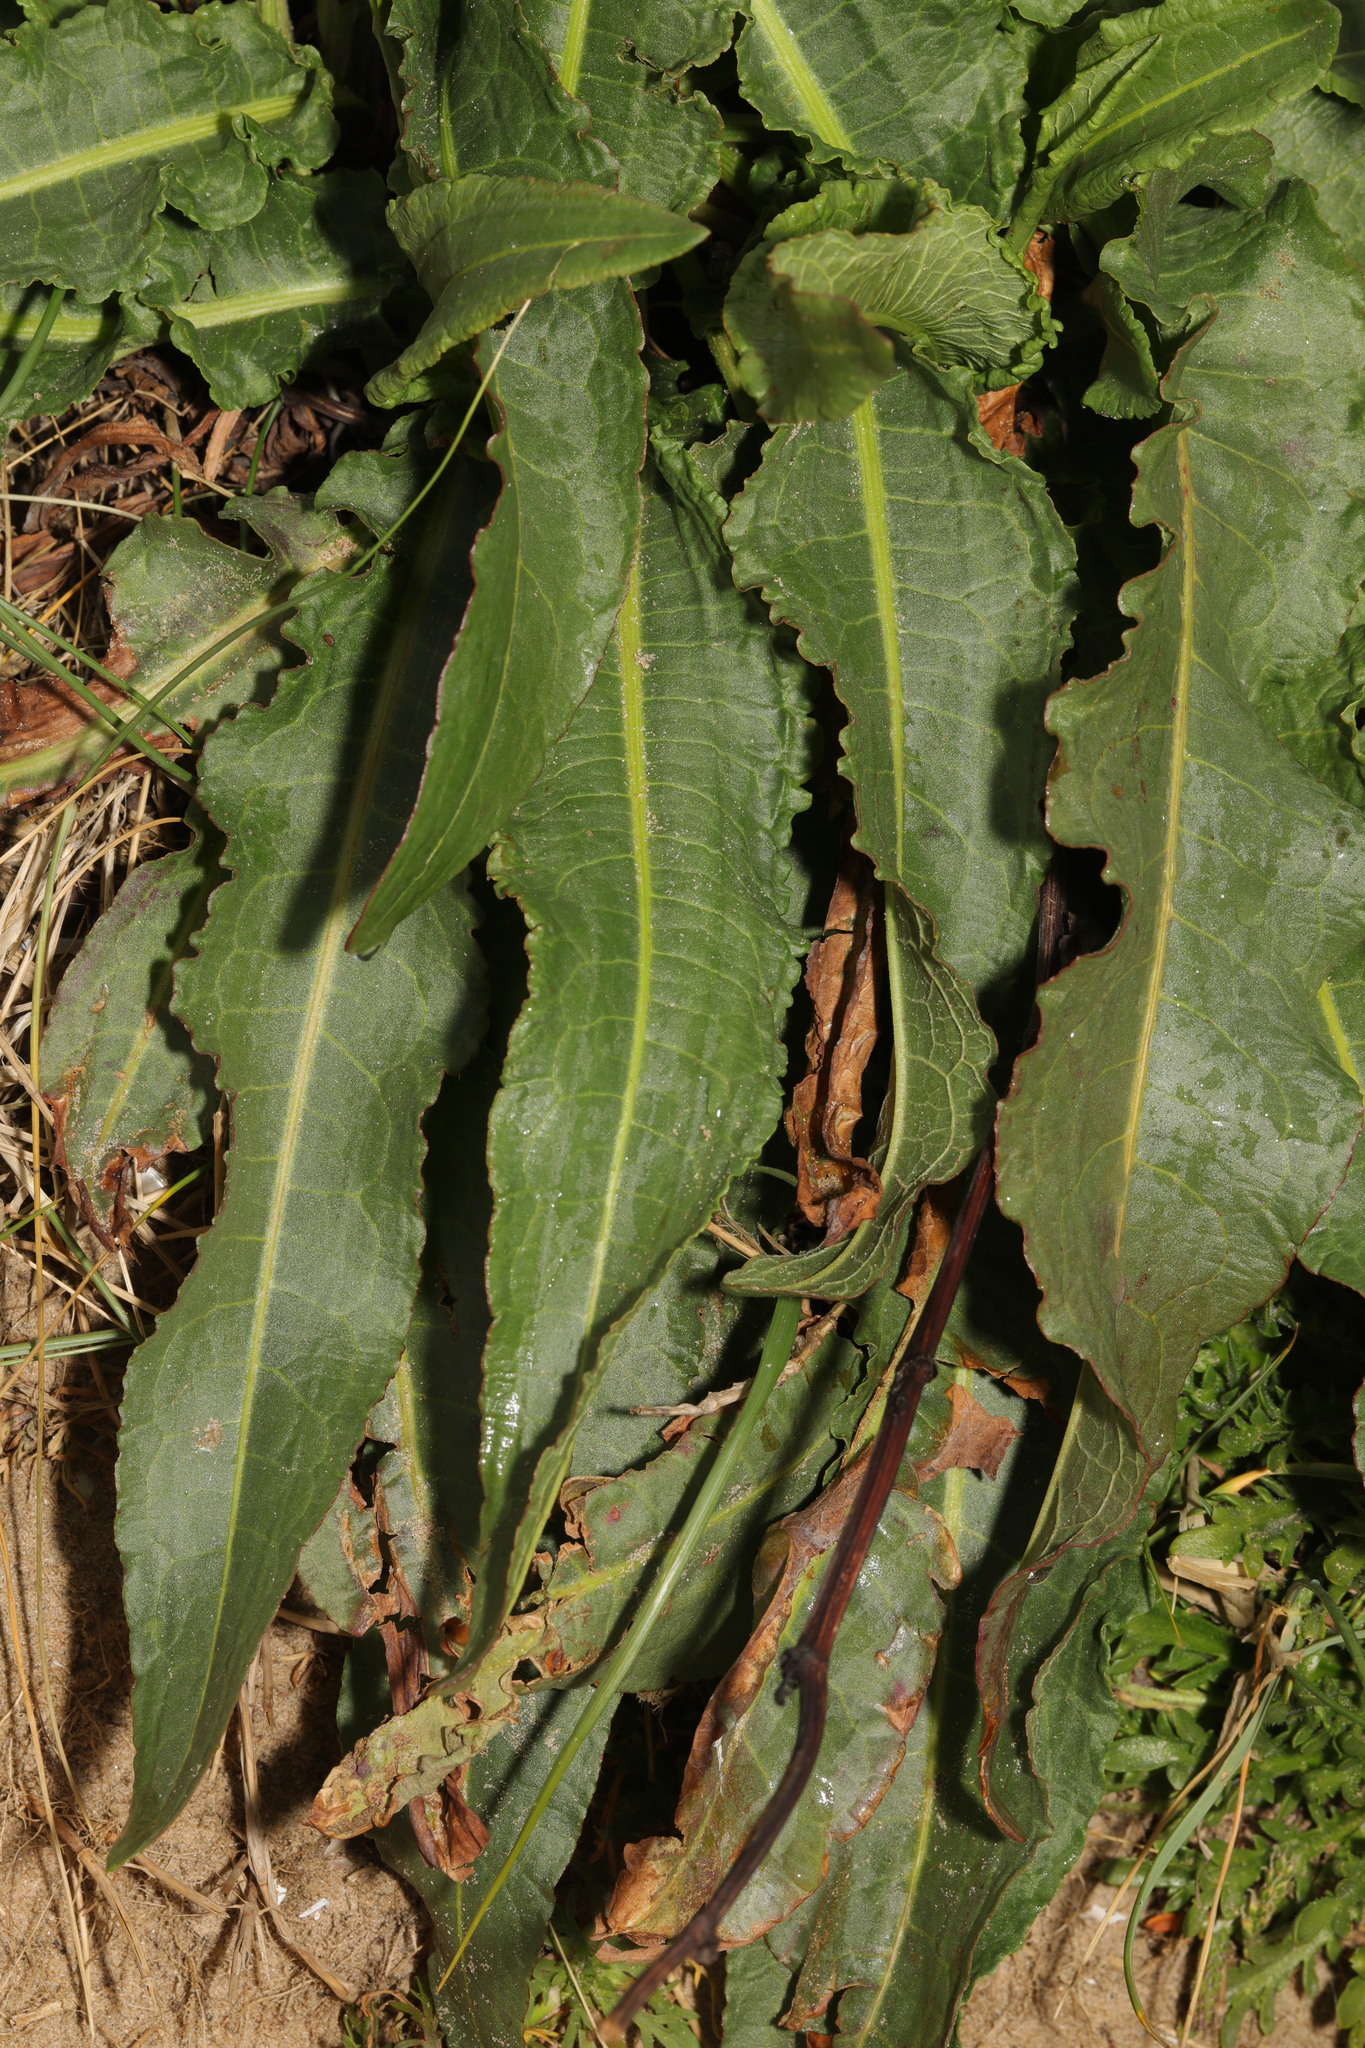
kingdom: Plantae
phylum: Tracheophyta
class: Magnoliopsida
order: Caryophyllales
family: Polygonaceae
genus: Rumex
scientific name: Rumex crispus
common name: Curled dock
